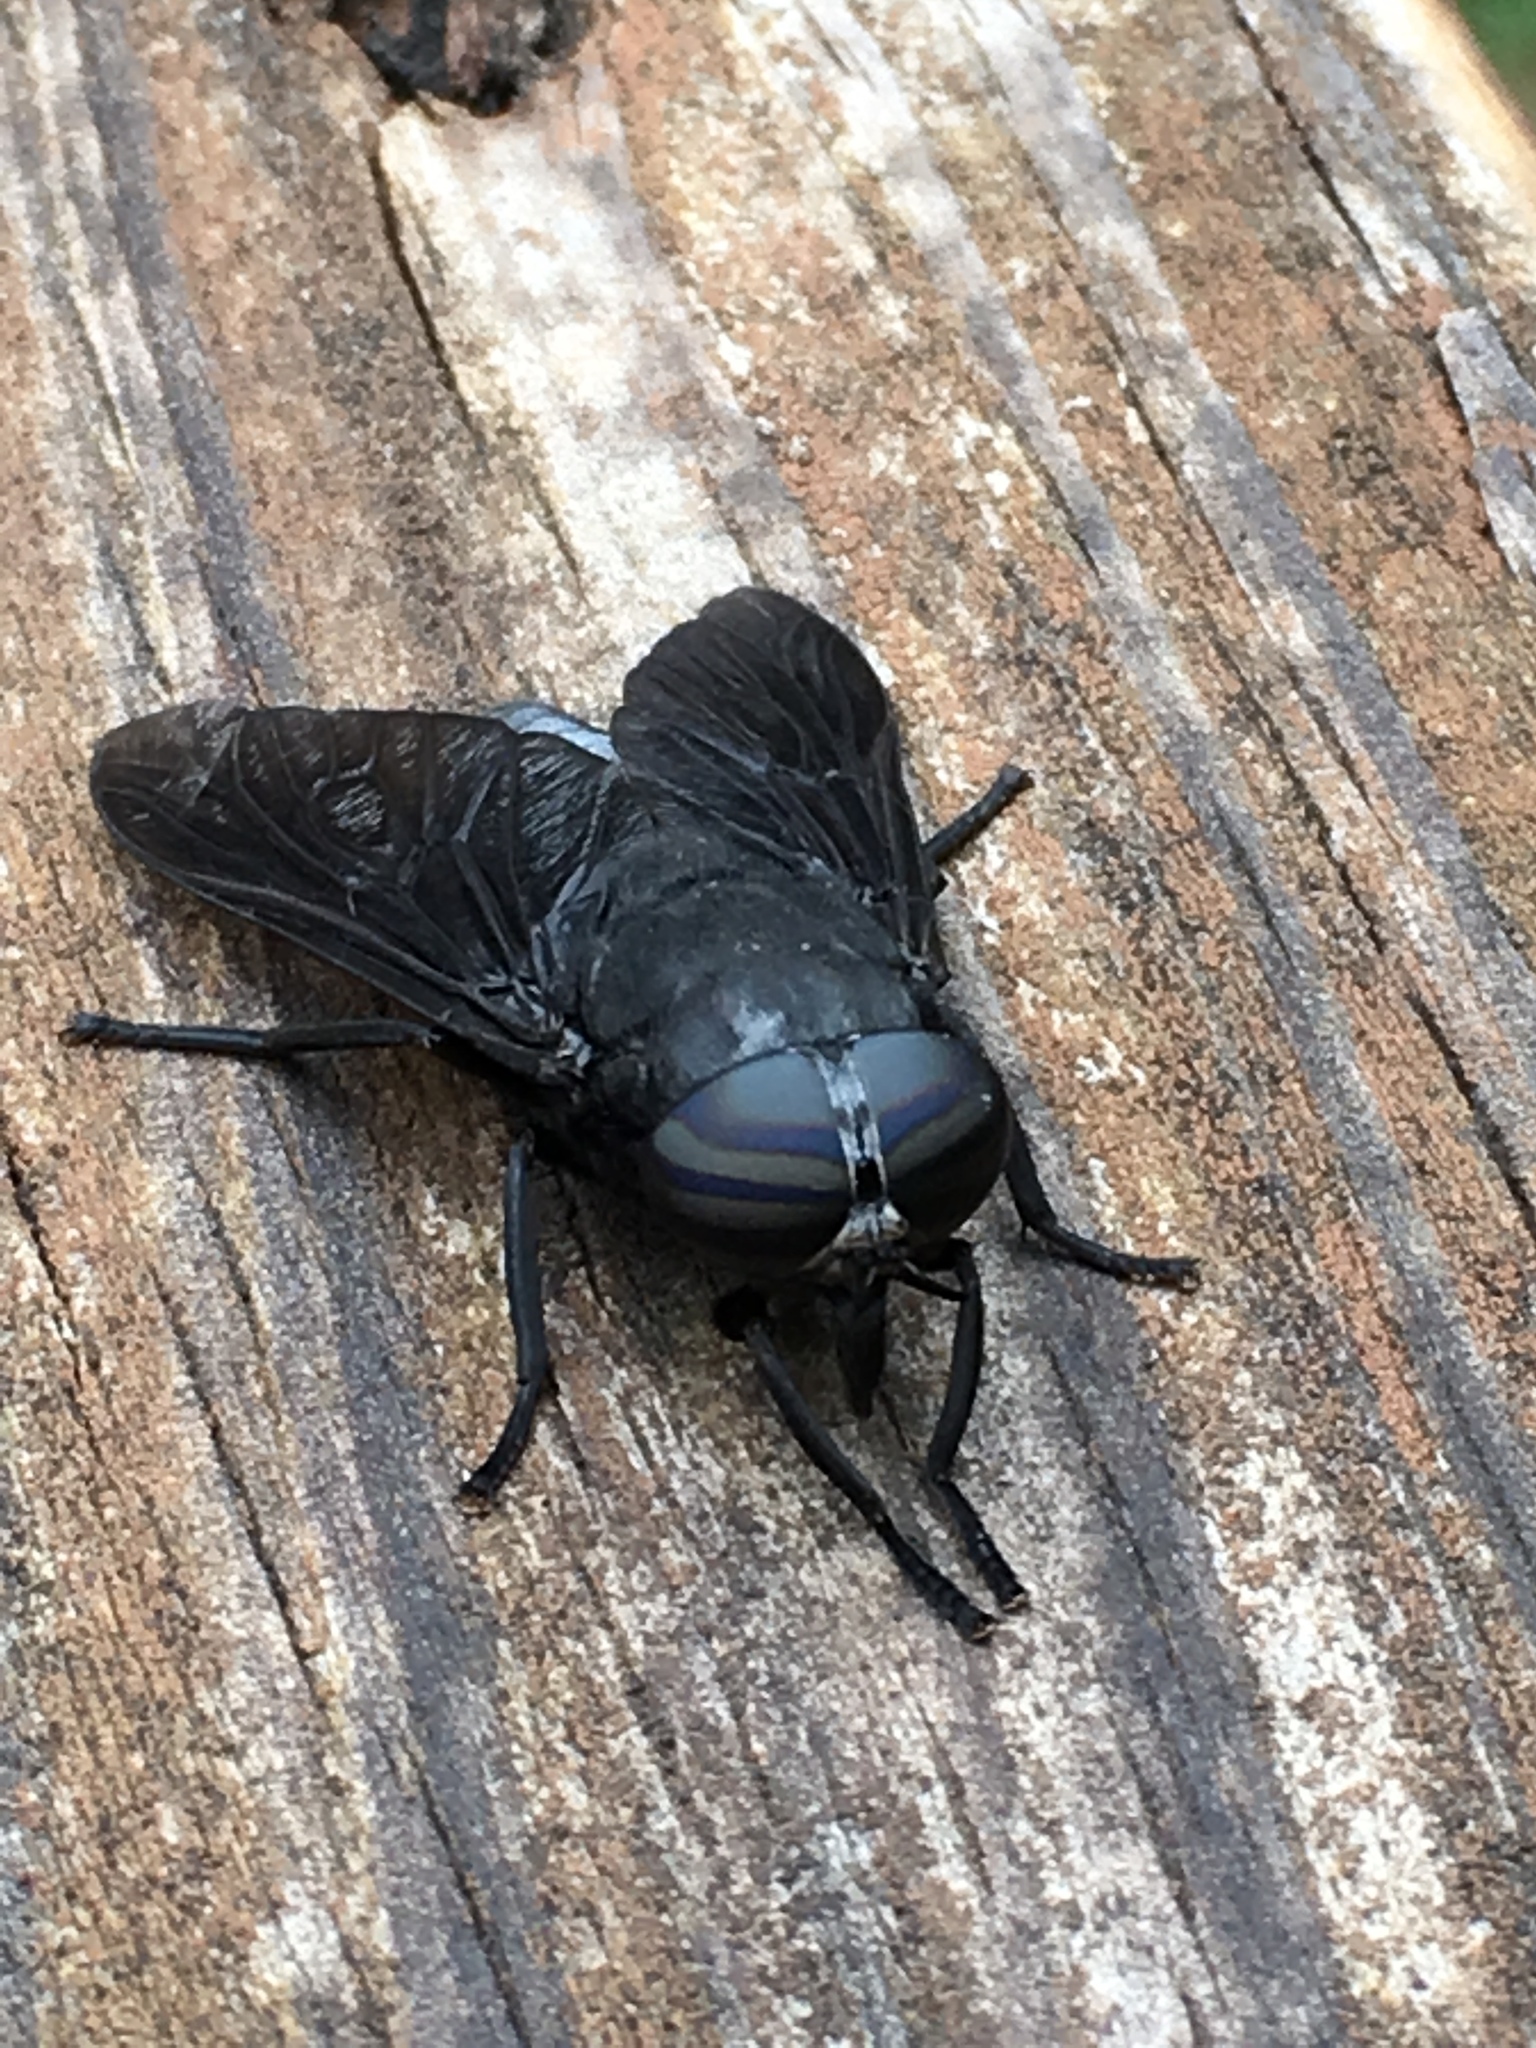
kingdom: Animalia
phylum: Arthropoda
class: Insecta
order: Diptera
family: Tabanidae
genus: Tabanus
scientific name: Tabanus atratus
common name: Black horse fly
